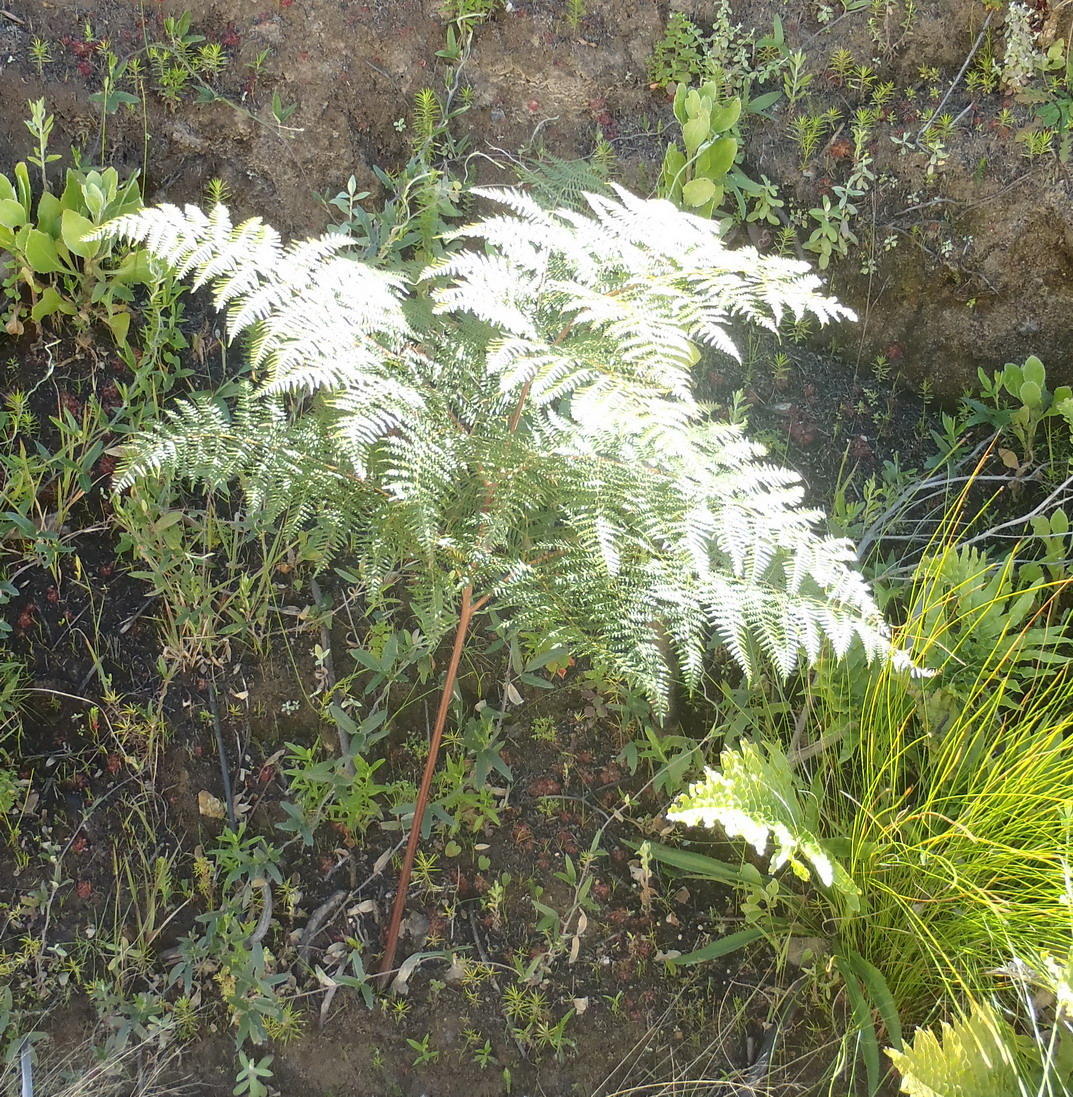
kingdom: Plantae
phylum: Tracheophyta
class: Polypodiopsida
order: Polypodiales
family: Dennstaedtiaceae
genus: Pteridium
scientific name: Pteridium aquilinum
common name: Bracken
